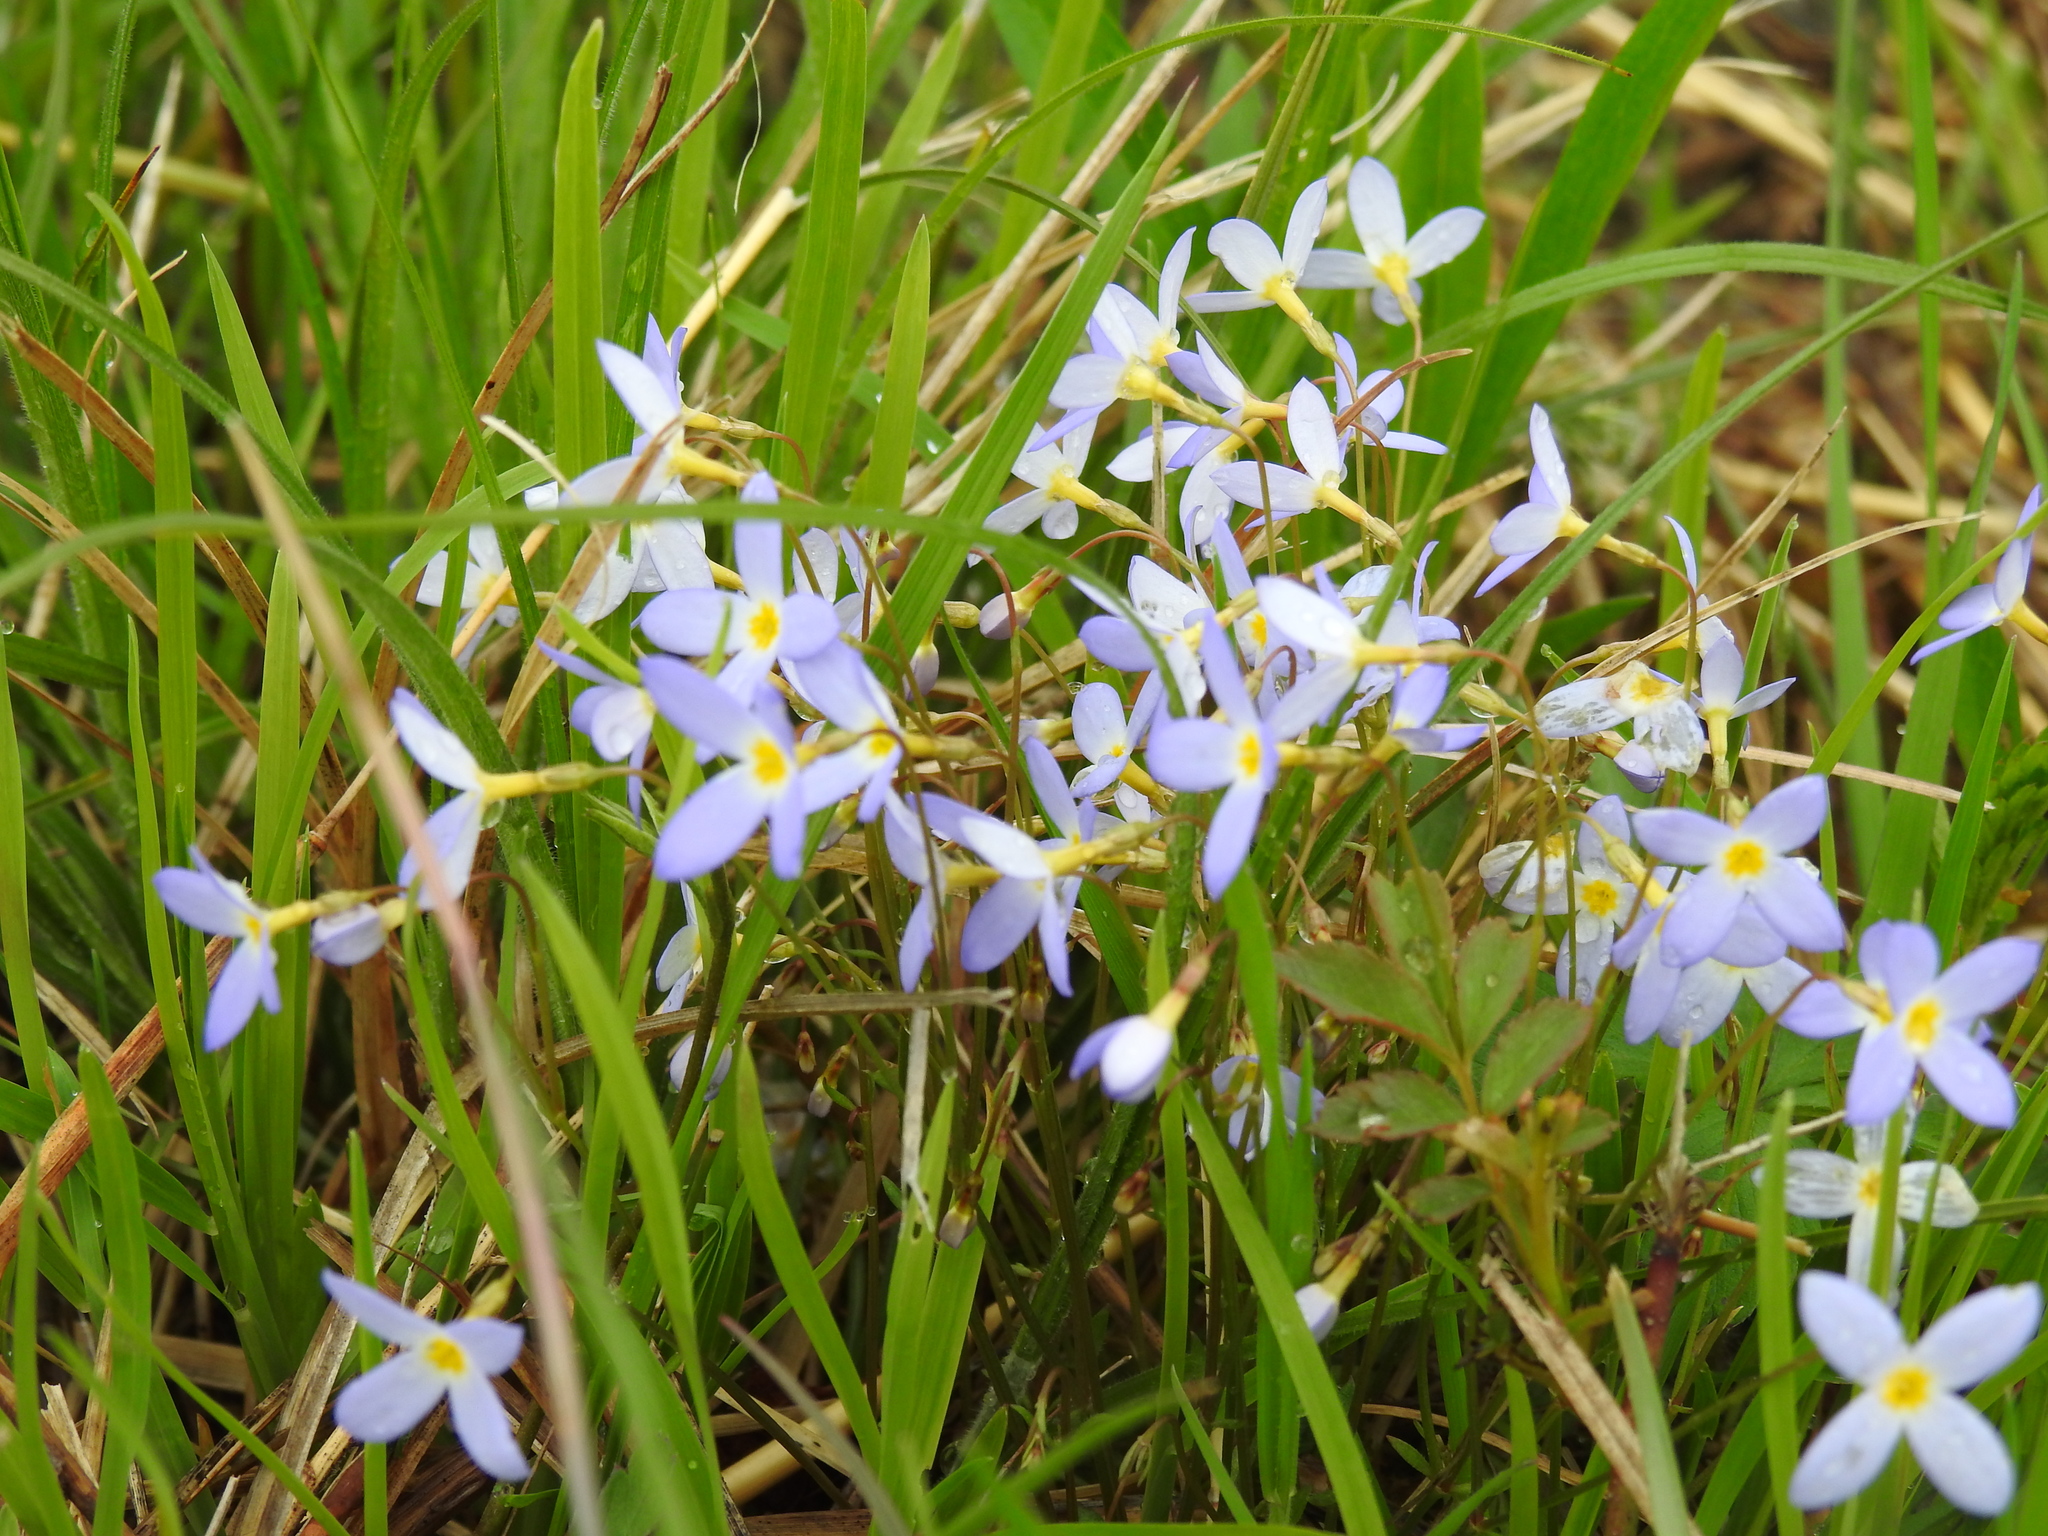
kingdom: Plantae
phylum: Tracheophyta
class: Magnoliopsida
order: Gentianales
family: Rubiaceae
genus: Houstonia
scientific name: Houstonia caerulea
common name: Bluets
